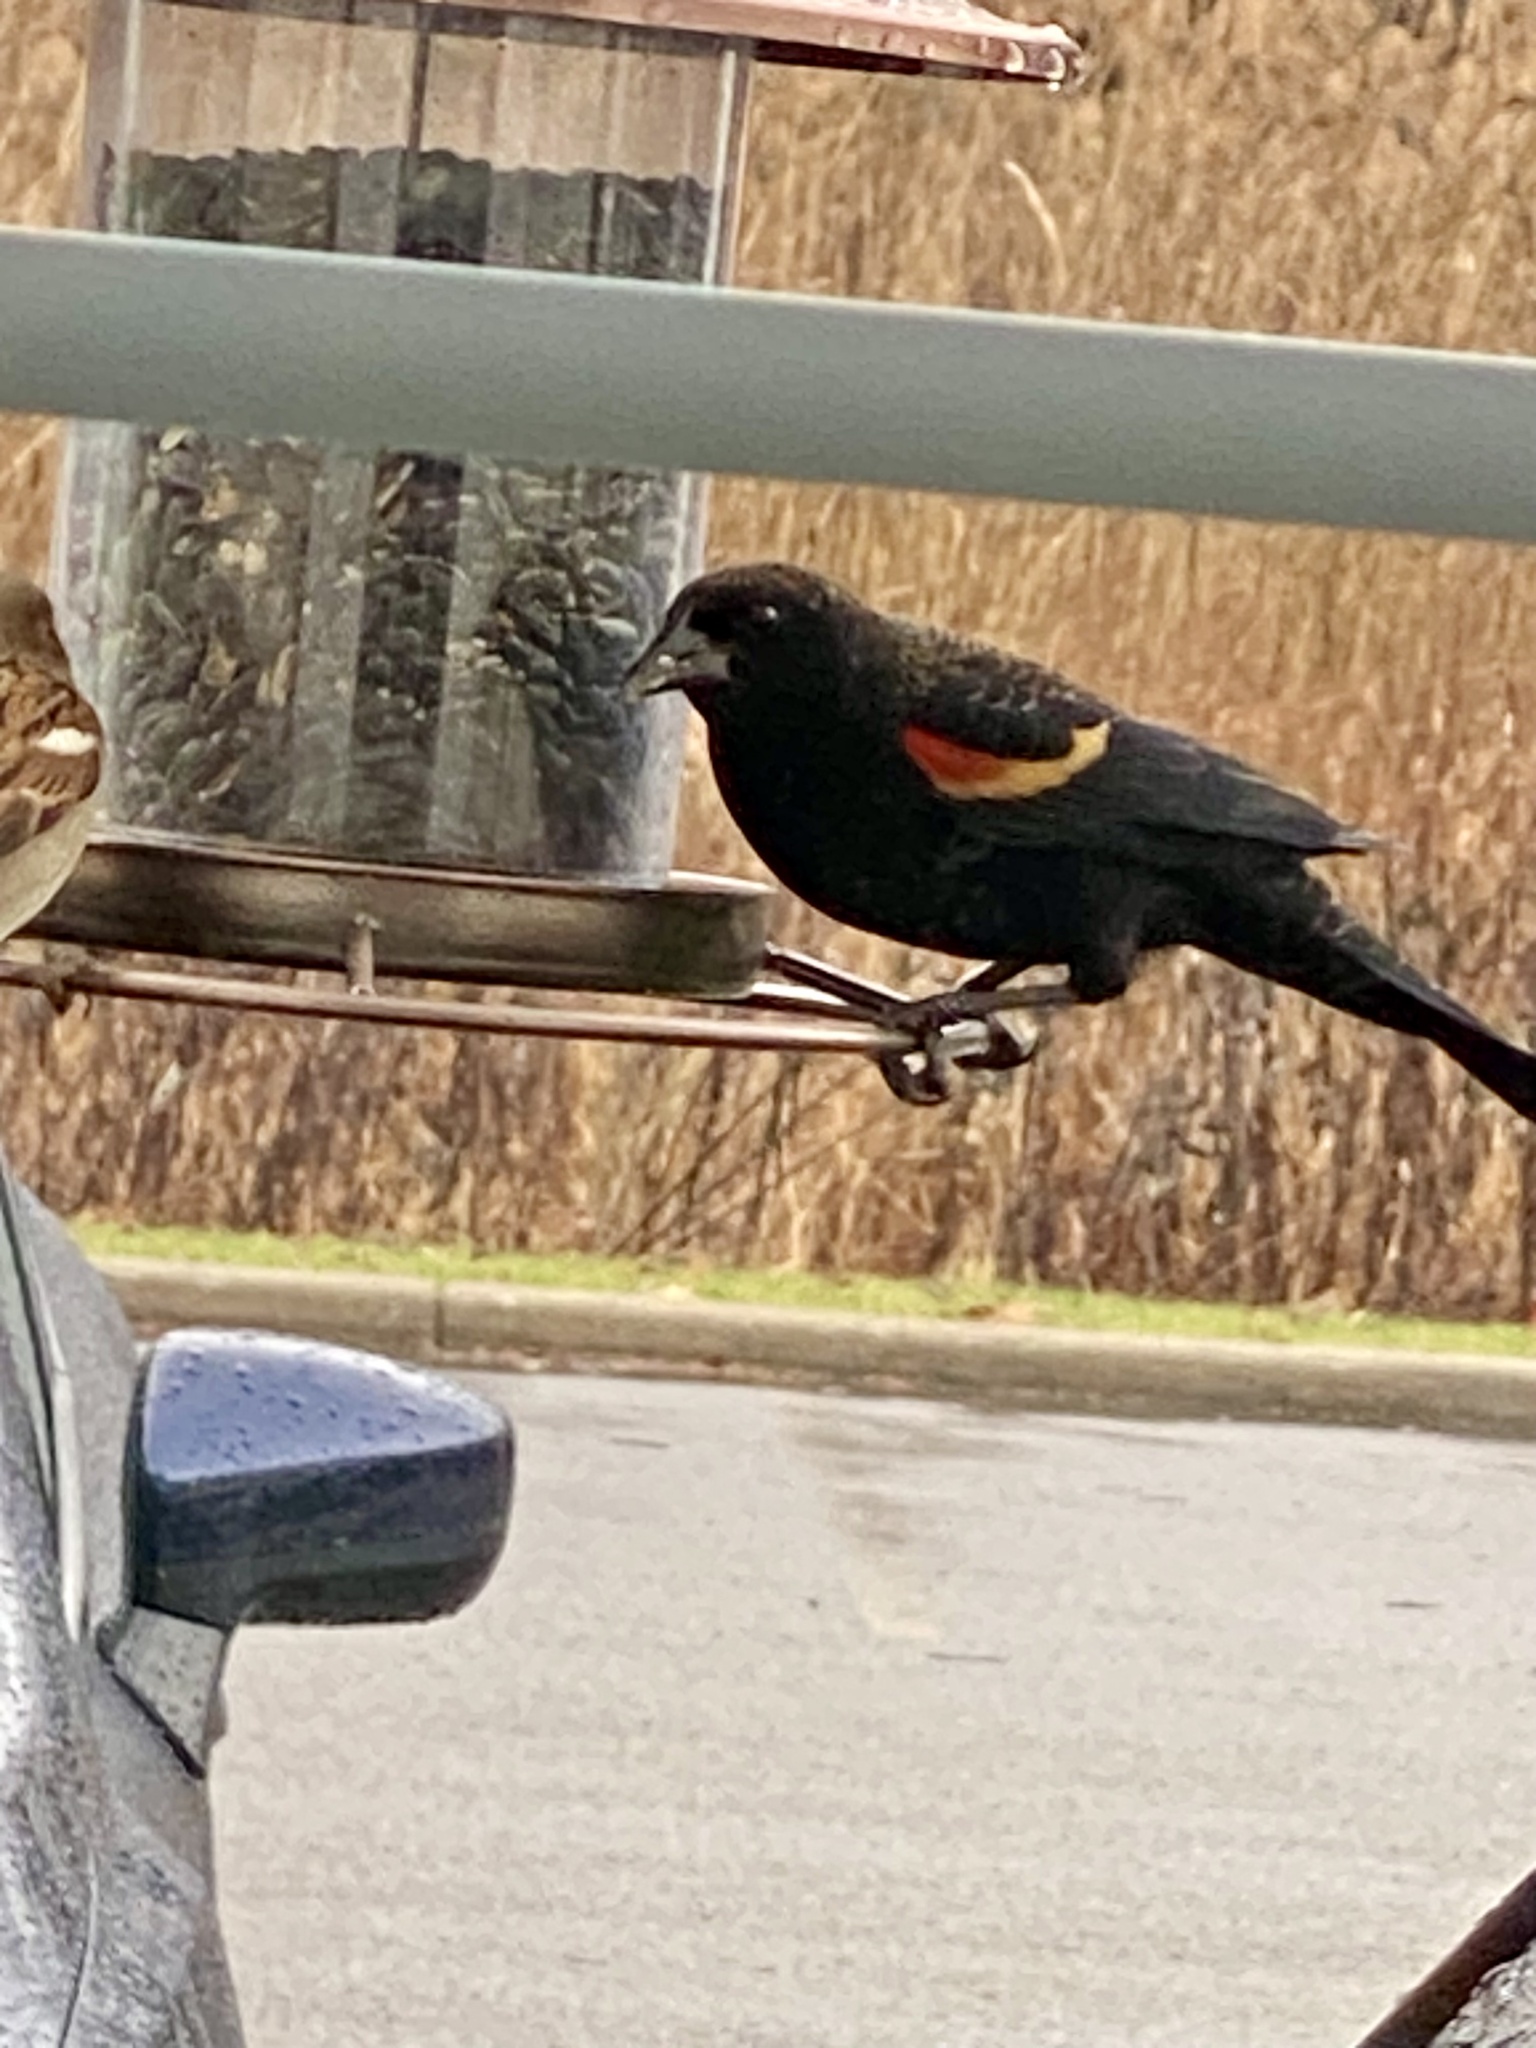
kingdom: Animalia
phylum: Chordata
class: Aves
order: Passeriformes
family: Icteridae
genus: Agelaius
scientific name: Agelaius phoeniceus
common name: Red-winged blackbird
